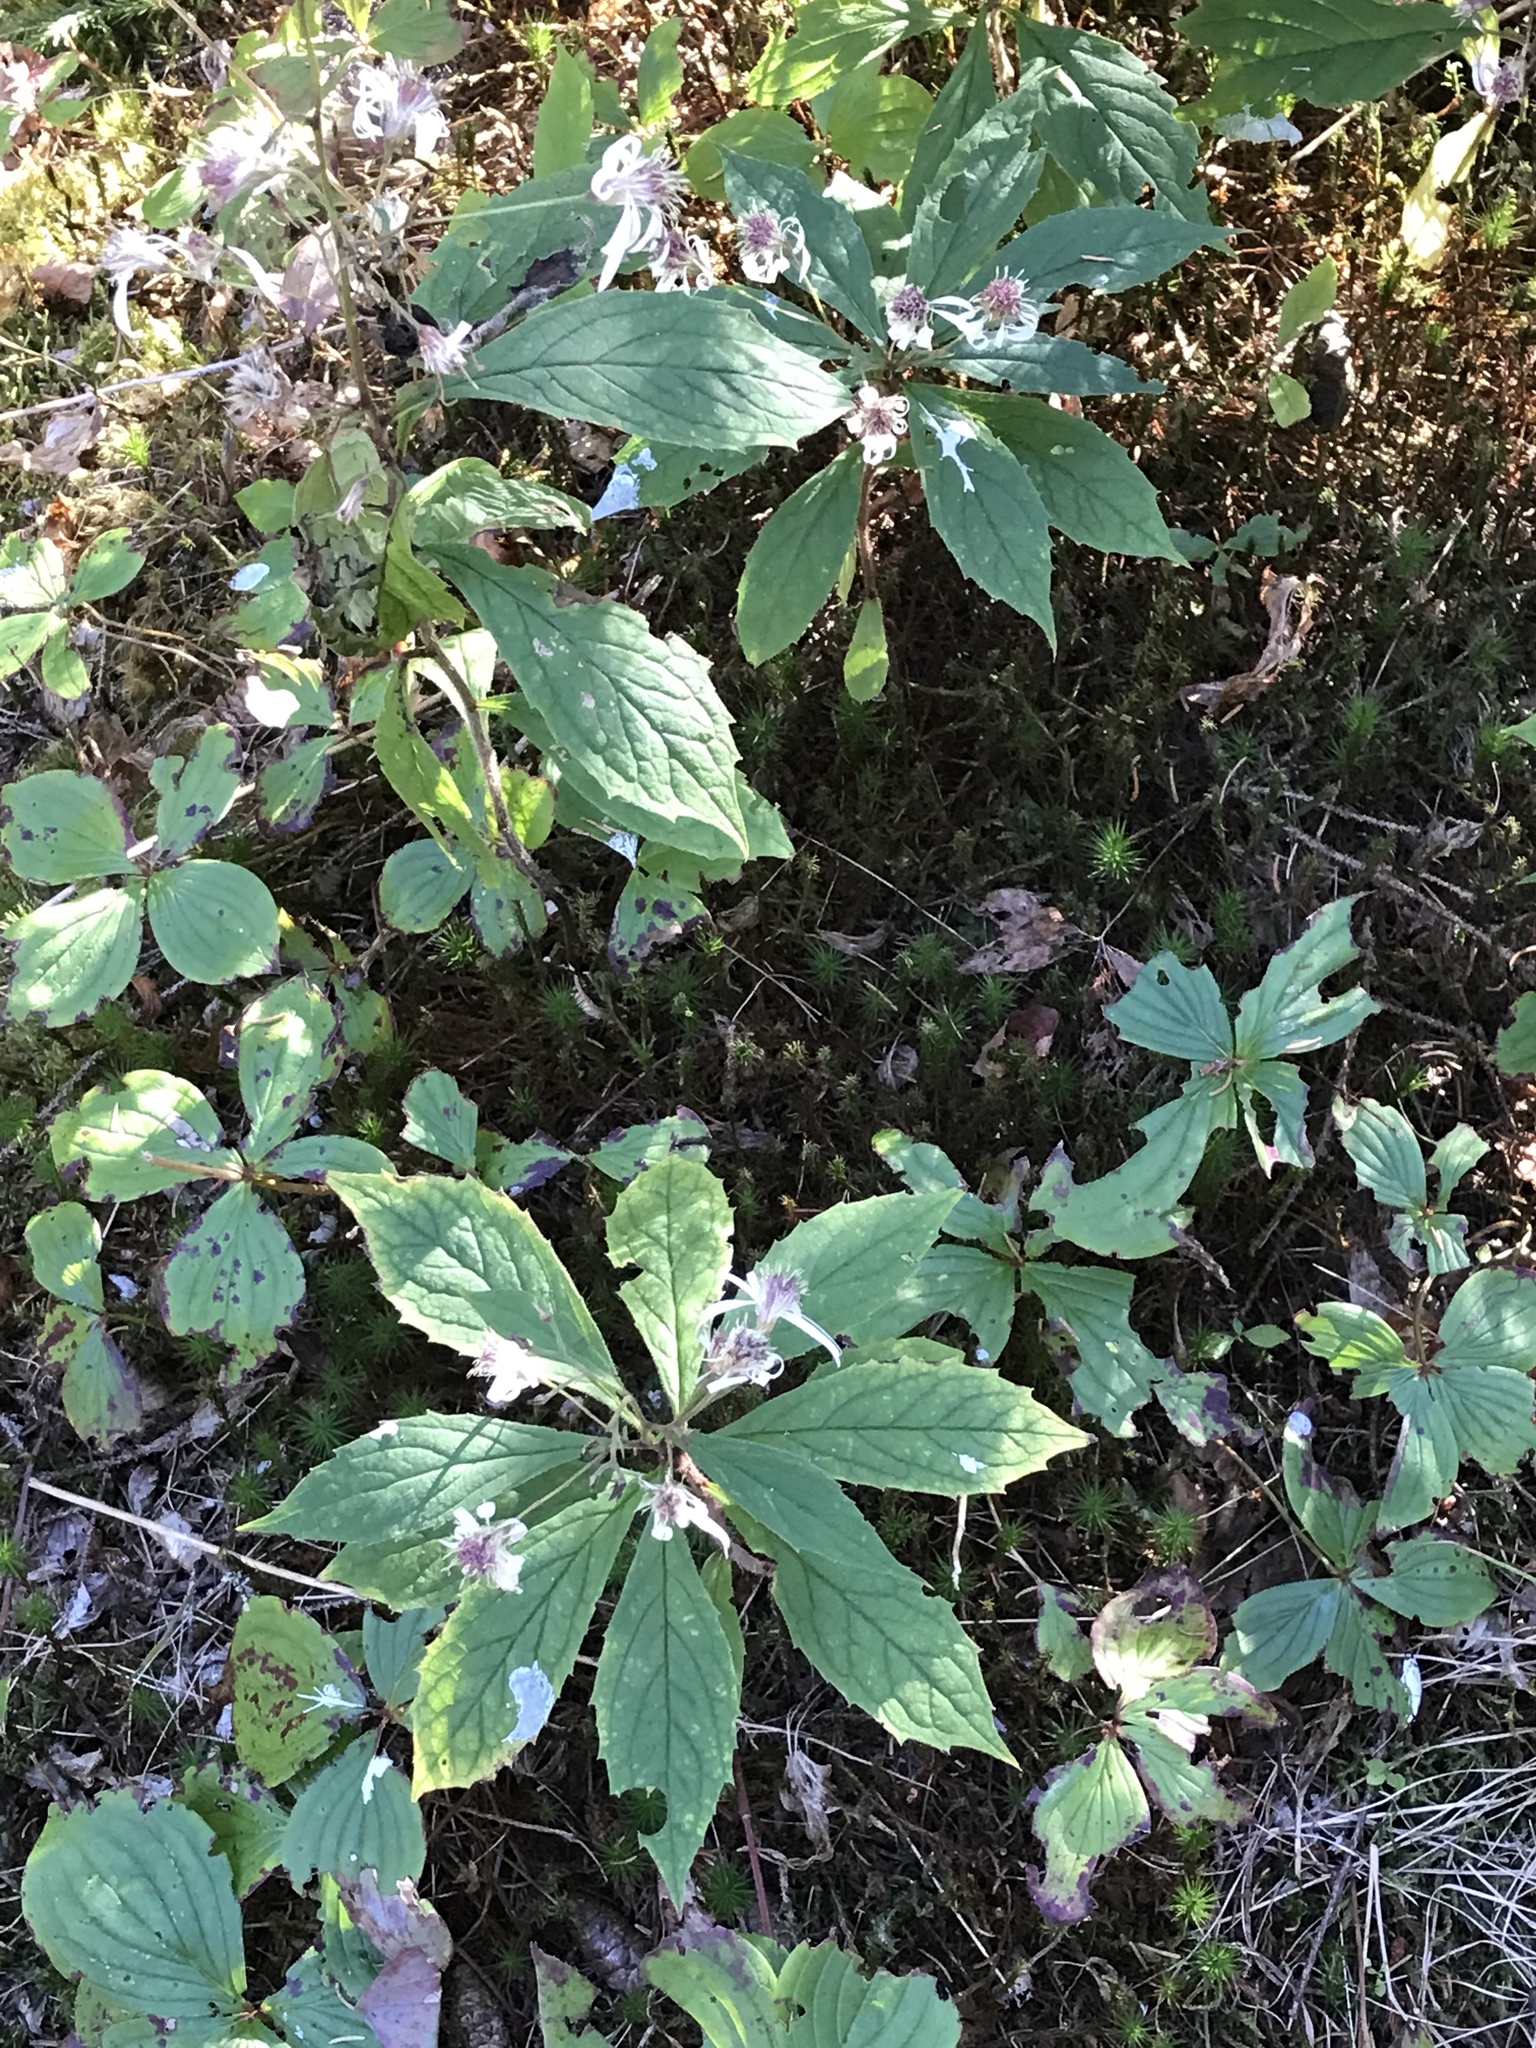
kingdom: Plantae
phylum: Tracheophyta
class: Magnoliopsida
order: Asterales
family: Asteraceae
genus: Oclemena
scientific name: Oclemena acuminata
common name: Mountain aster
